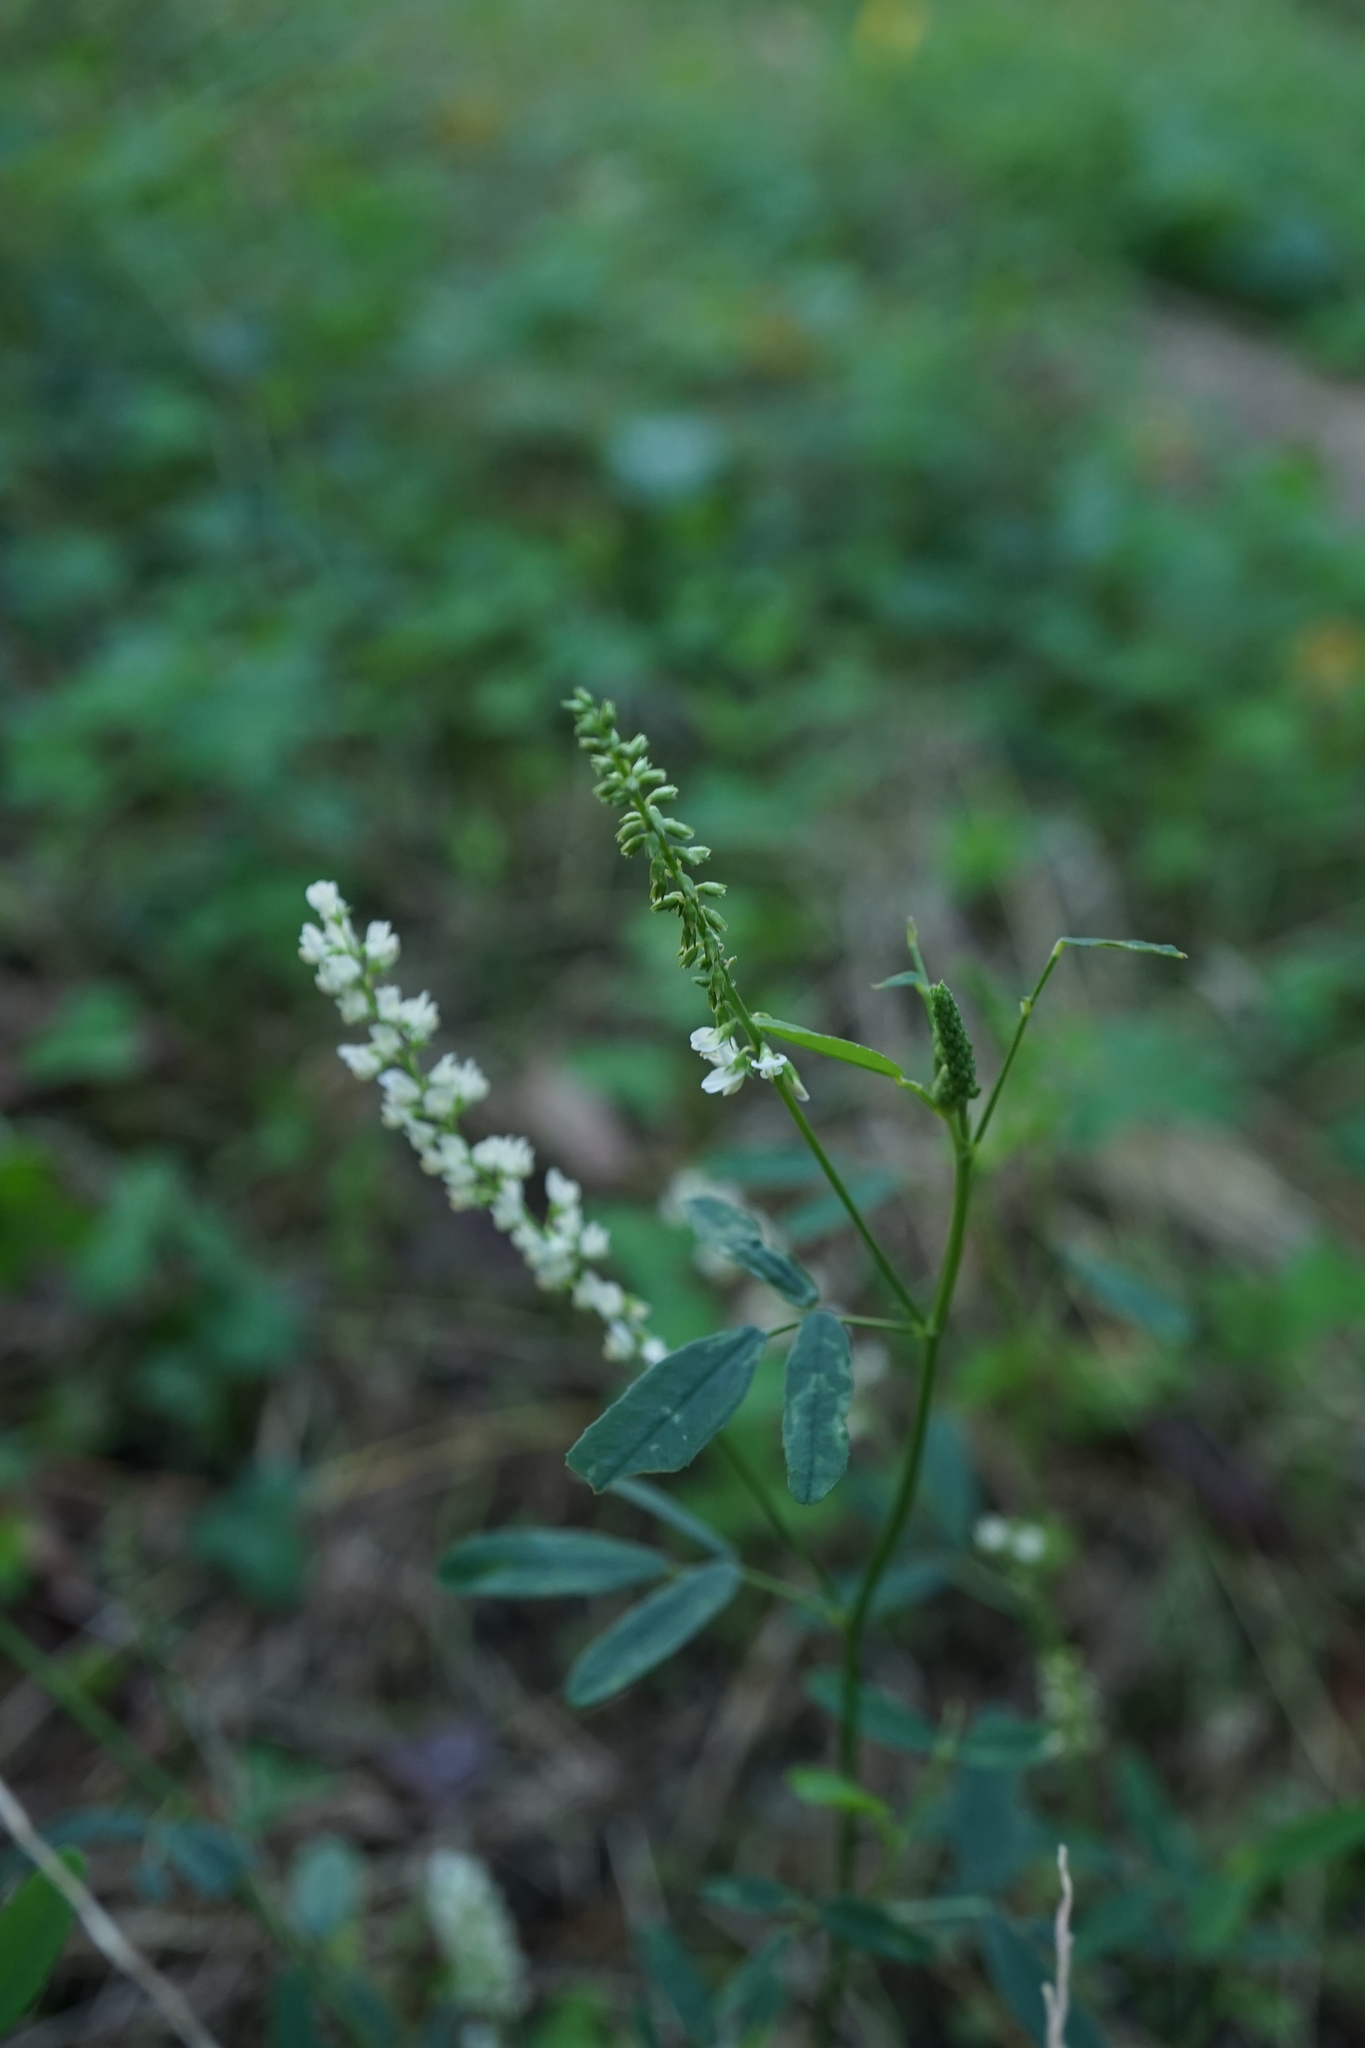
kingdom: Plantae
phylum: Tracheophyta
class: Magnoliopsida
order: Fabales
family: Fabaceae
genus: Melilotus
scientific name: Melilotus albus
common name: White melilot
